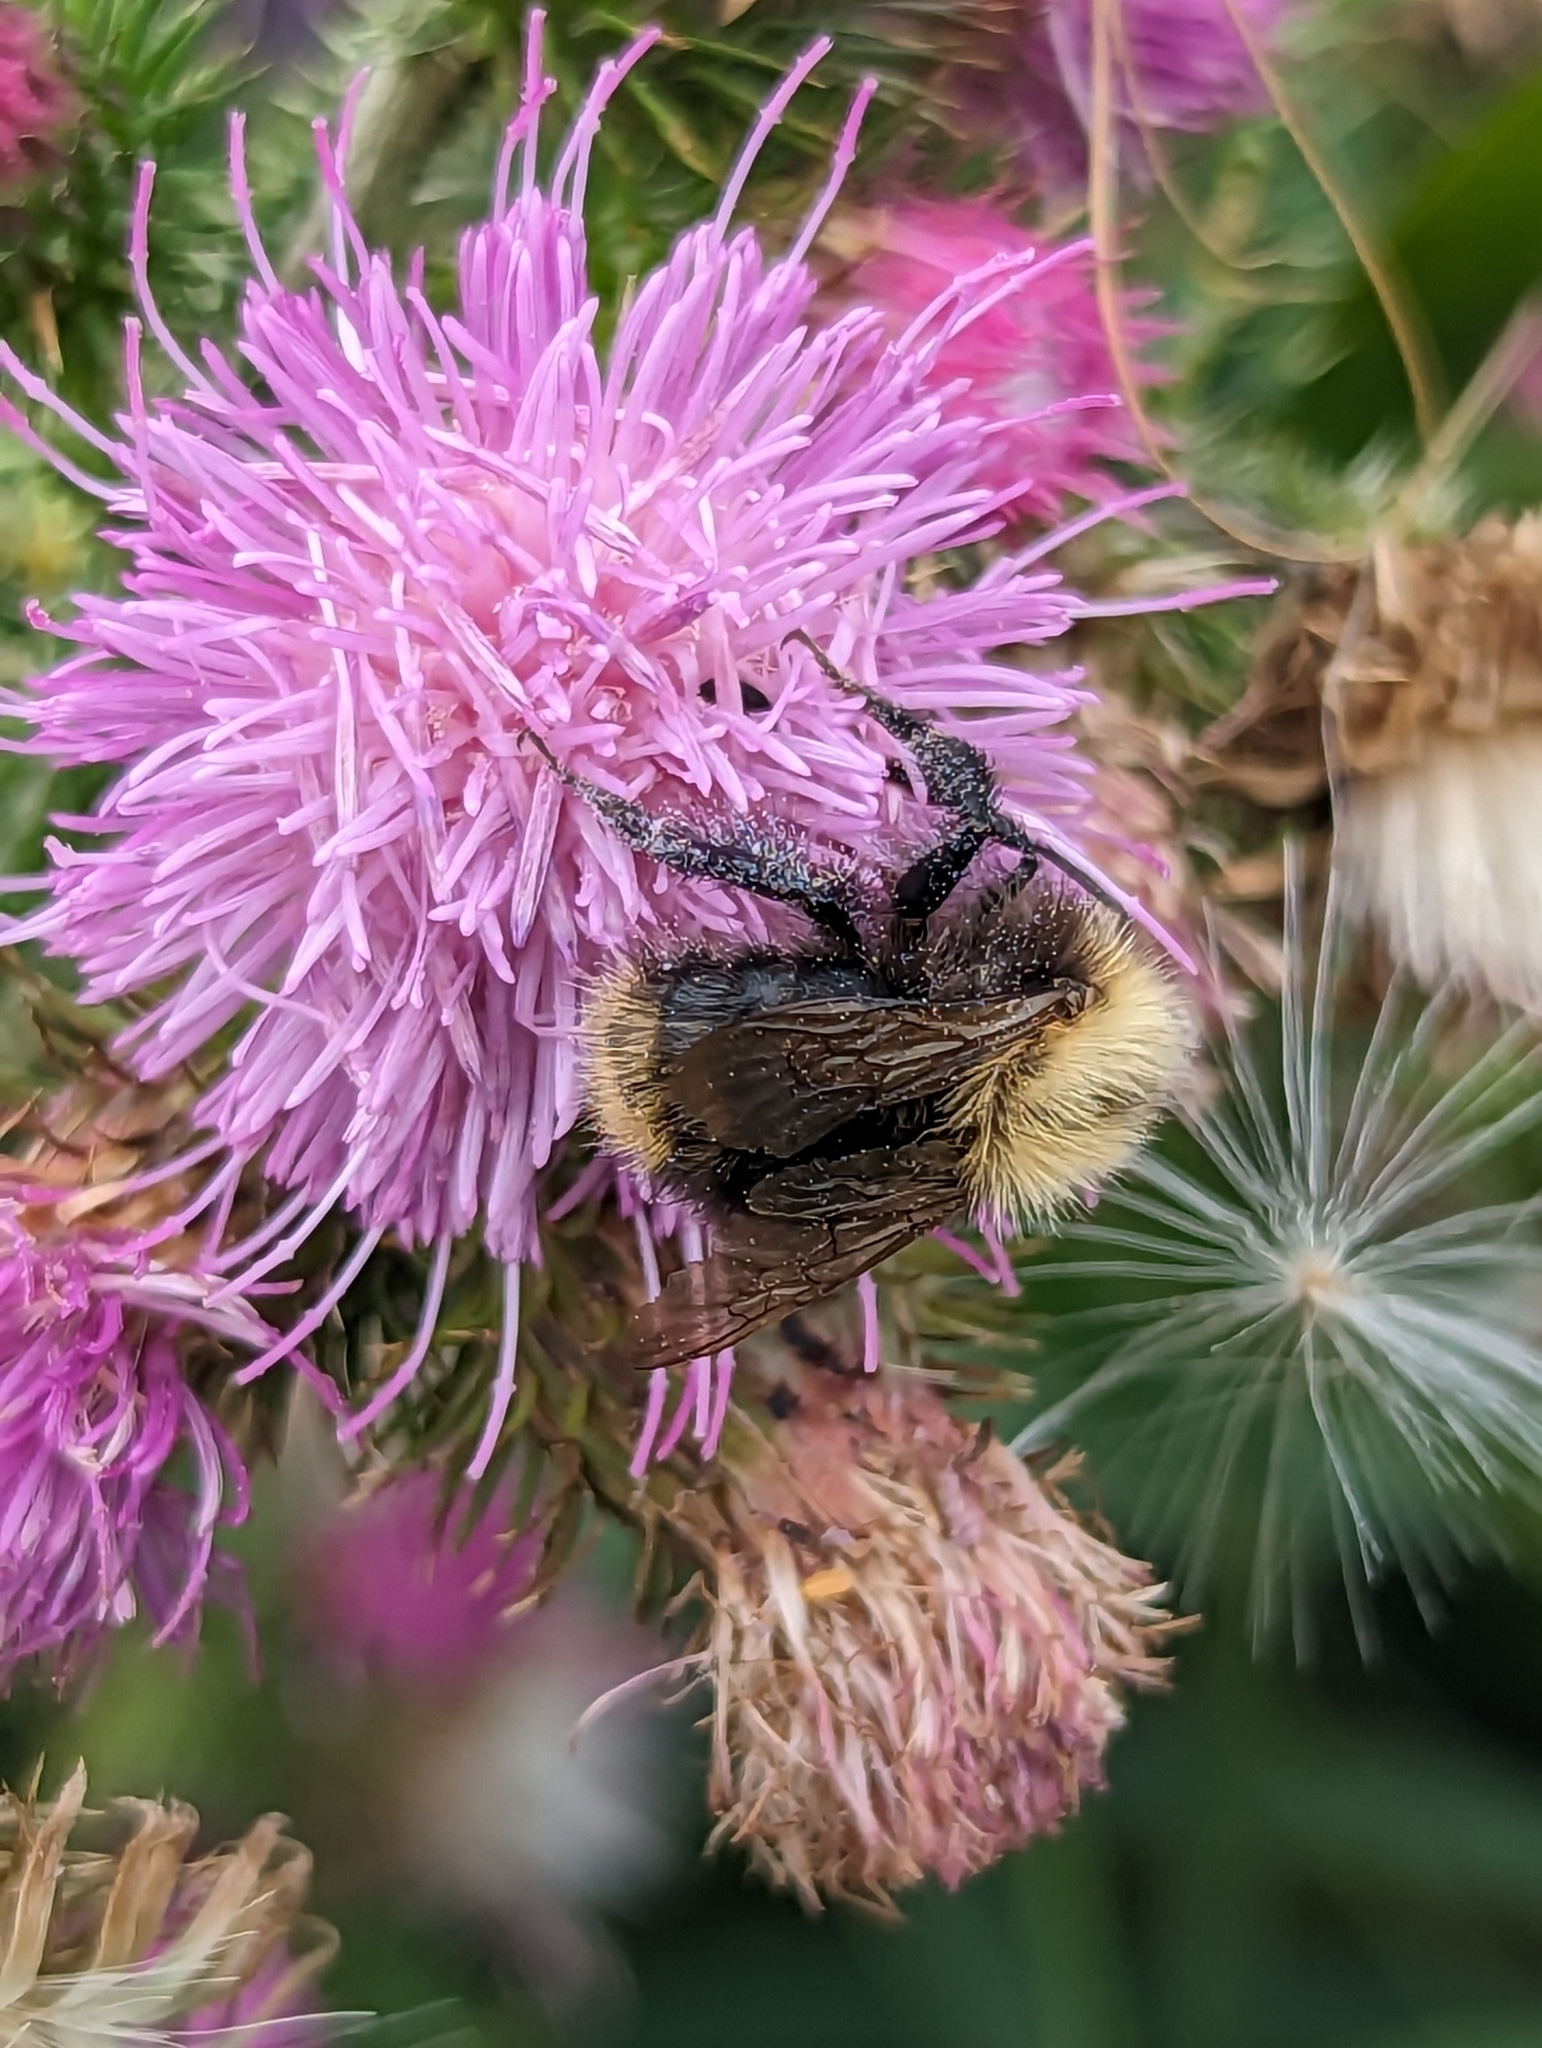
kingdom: Animalia
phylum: Arthropoda
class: Insecta
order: Hymenoptera
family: Apidae
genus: Bombus
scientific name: Bombus pascuorum
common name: Common carder bee
